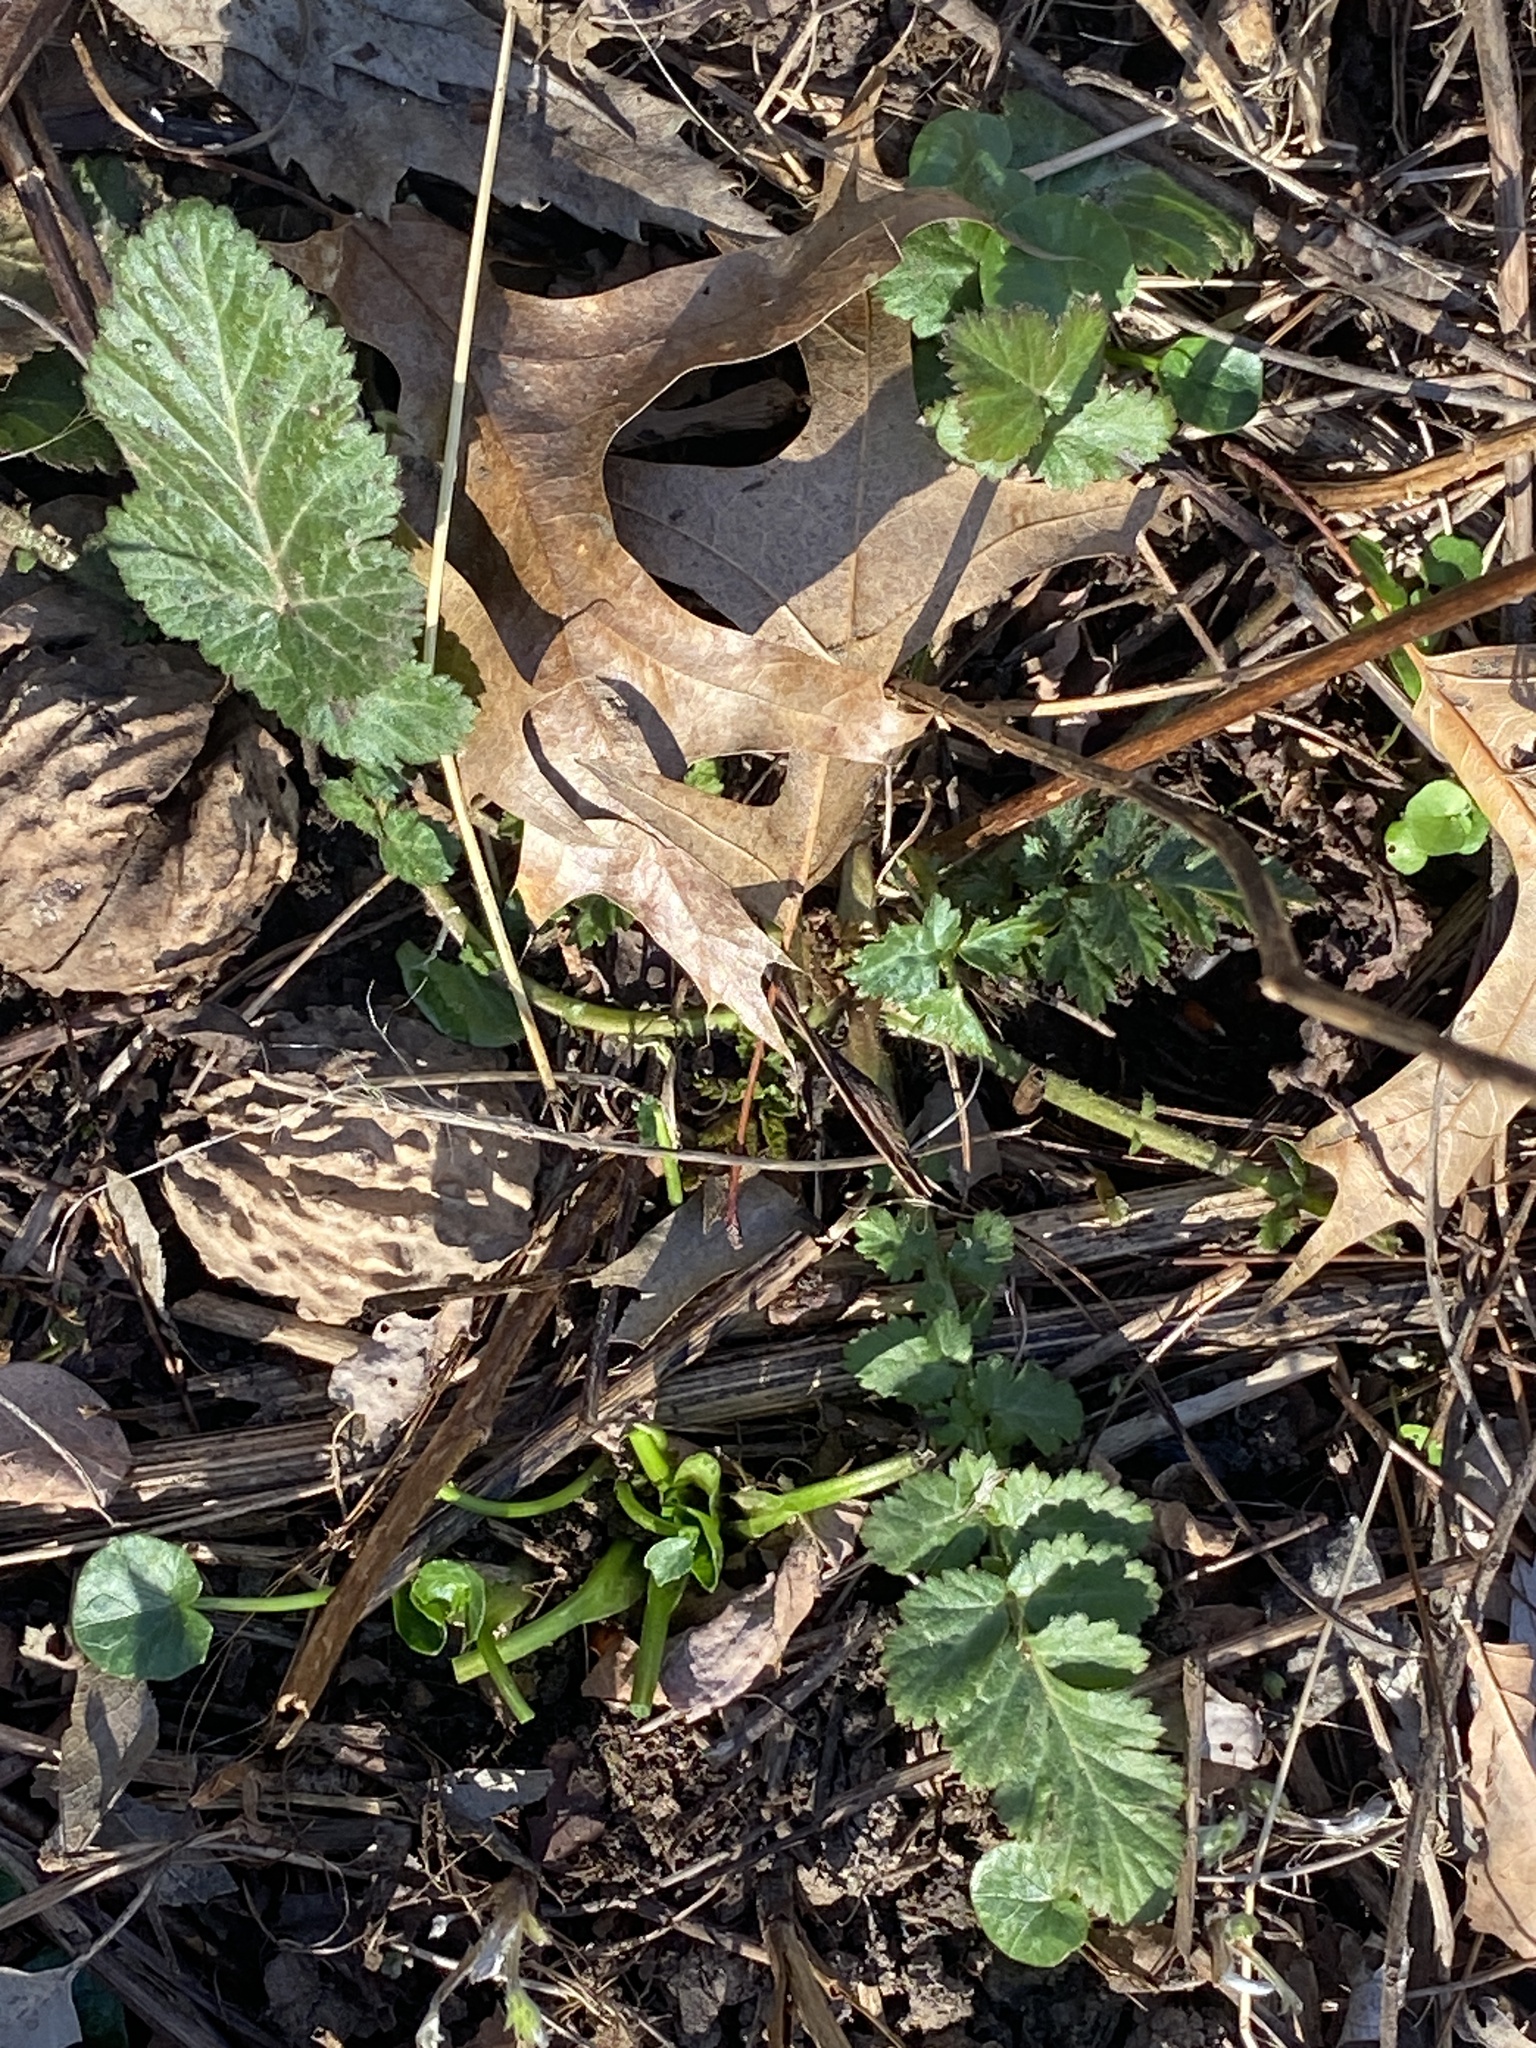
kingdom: Plantae
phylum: Tracheophyta
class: Magnoliopsida
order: Rosales
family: Rosaceae
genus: Geum
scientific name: Geum canadense
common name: White avens
